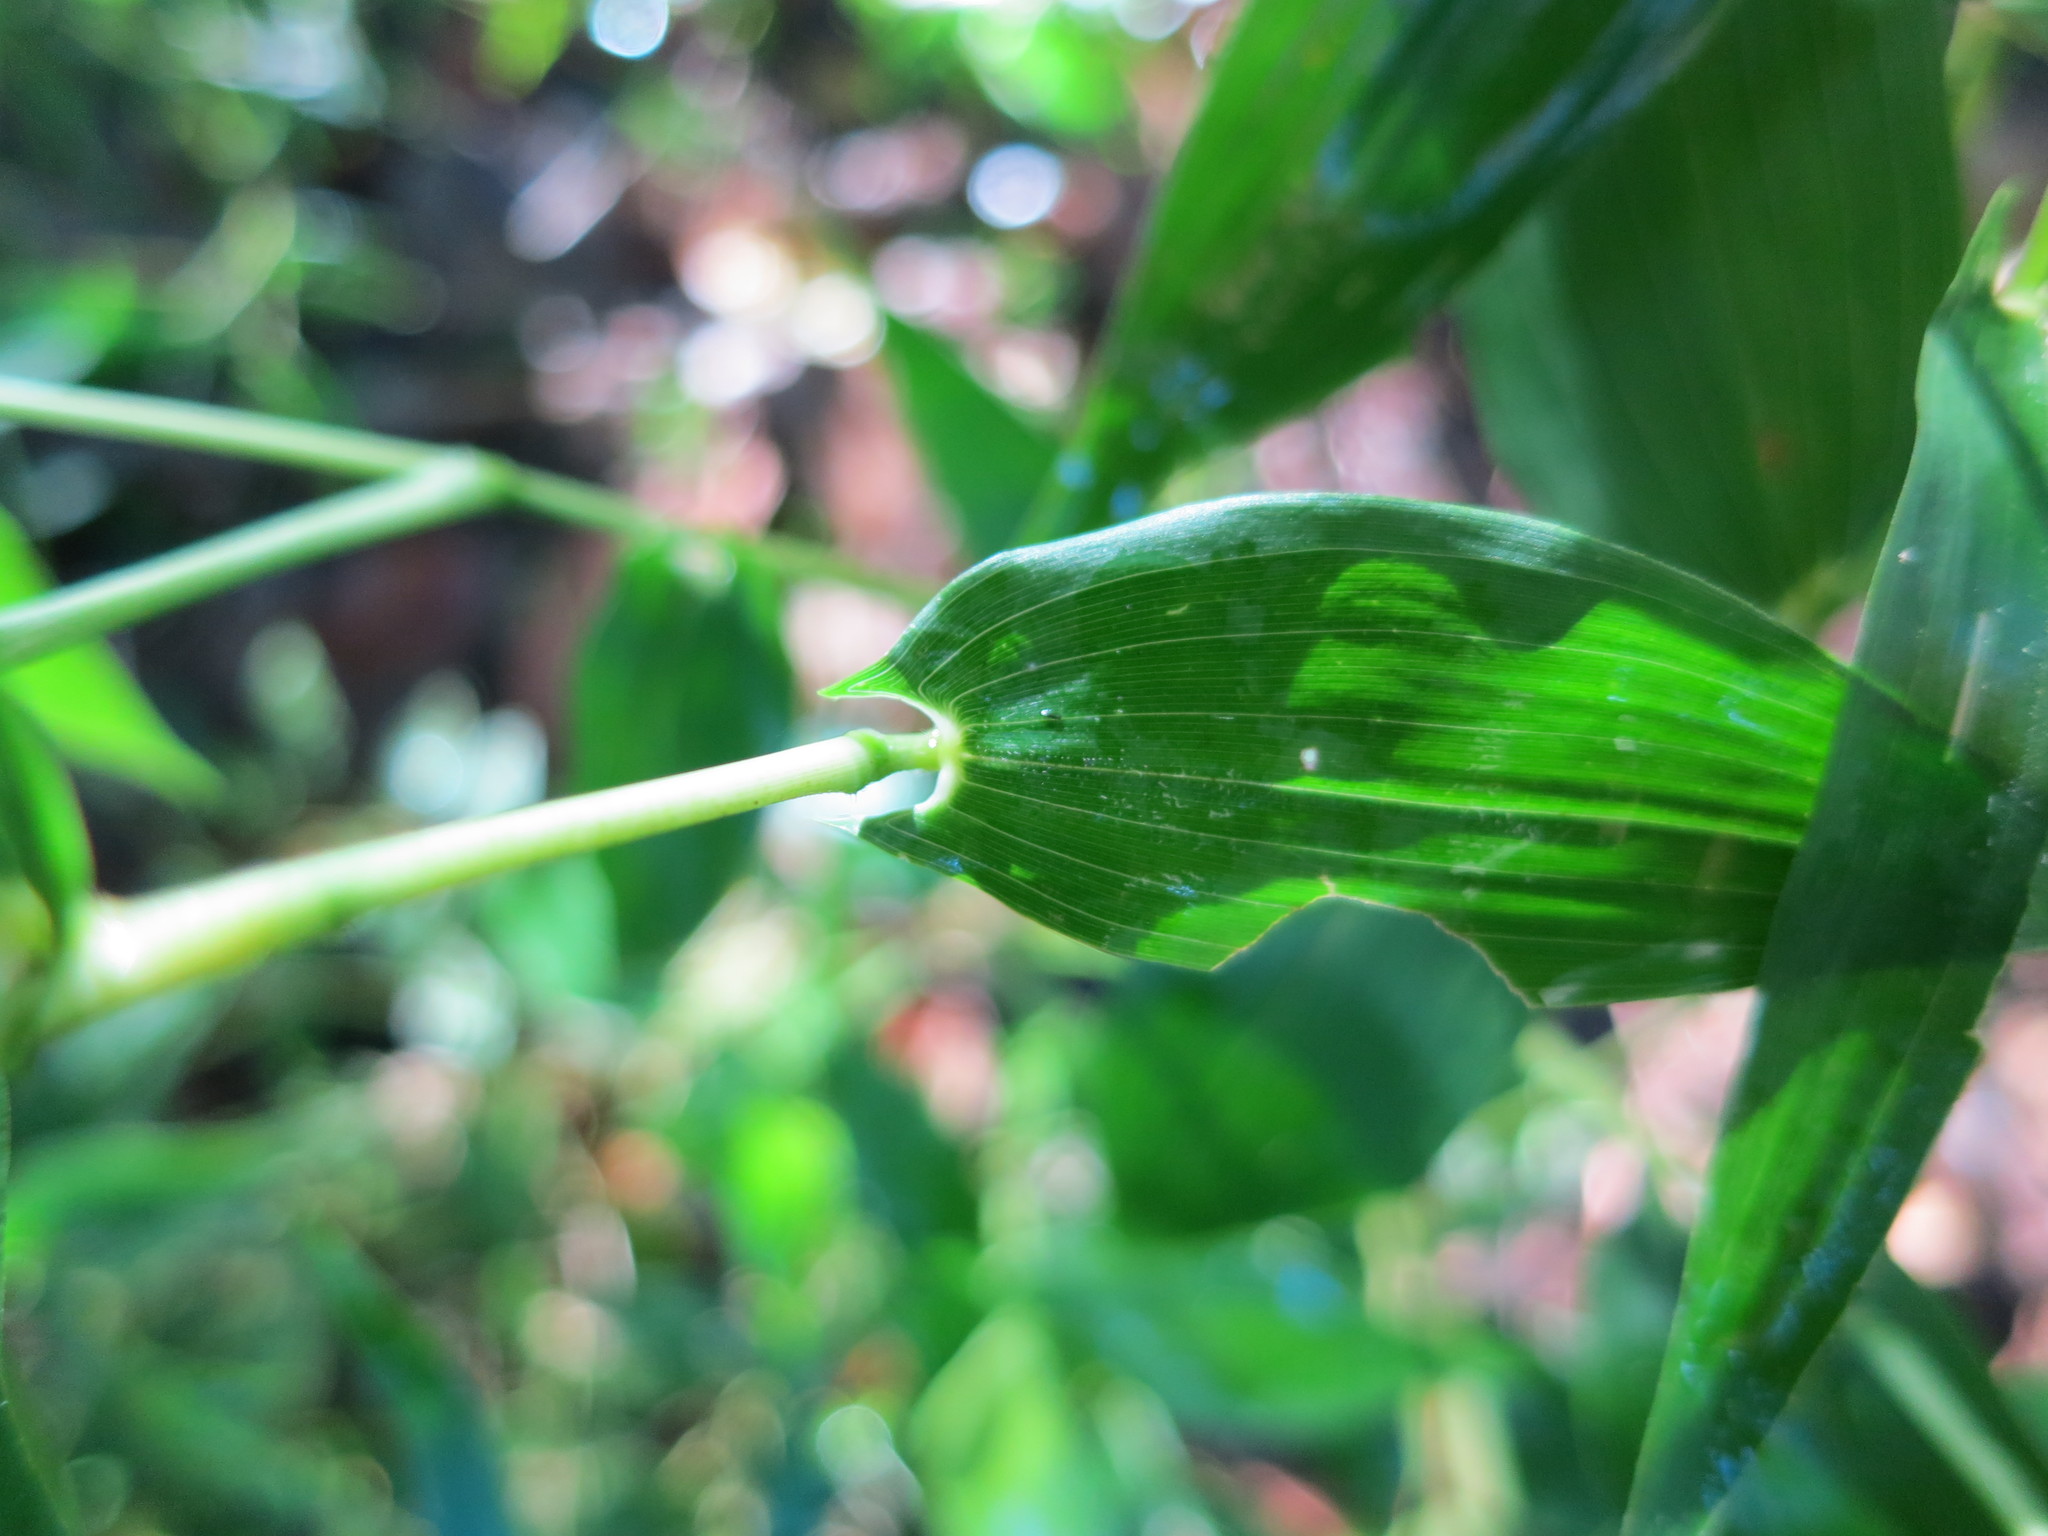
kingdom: Plantae
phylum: Tracheophyta
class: Liliopsida
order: Poales
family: Poaceae
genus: Humbertochloa
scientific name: Humbertochloa bambusiuscula
